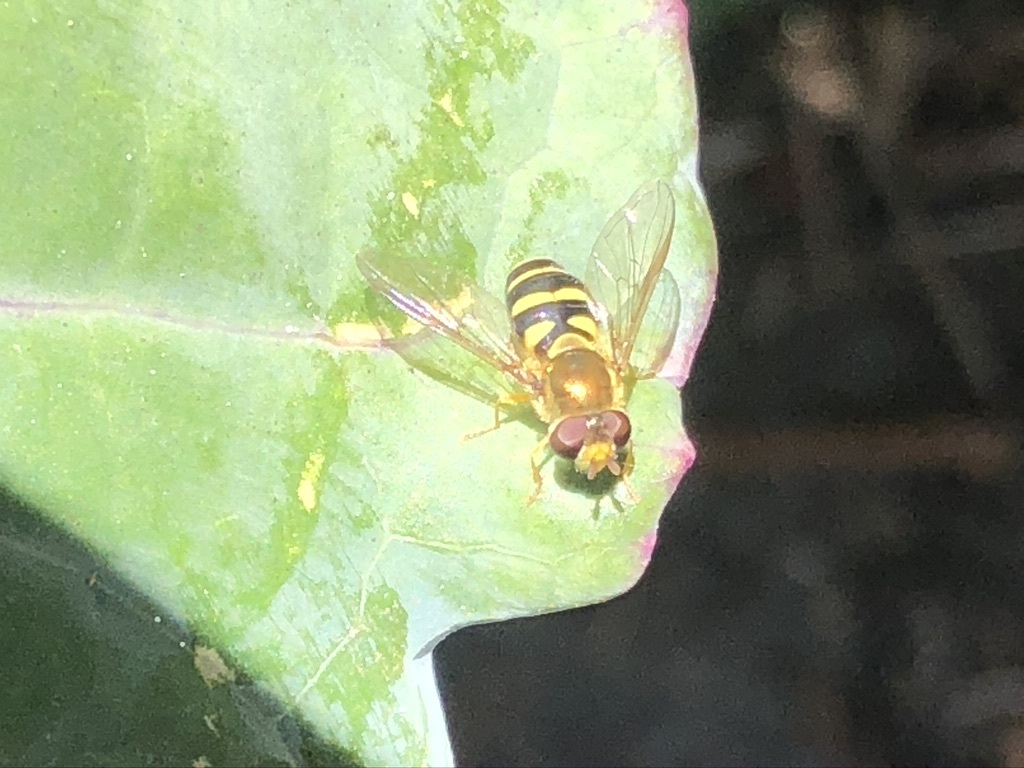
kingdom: Animalia
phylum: Arthropoda
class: Insecta
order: Diptera
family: Syrphidae
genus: Syrphus
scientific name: Syrphus opinator
